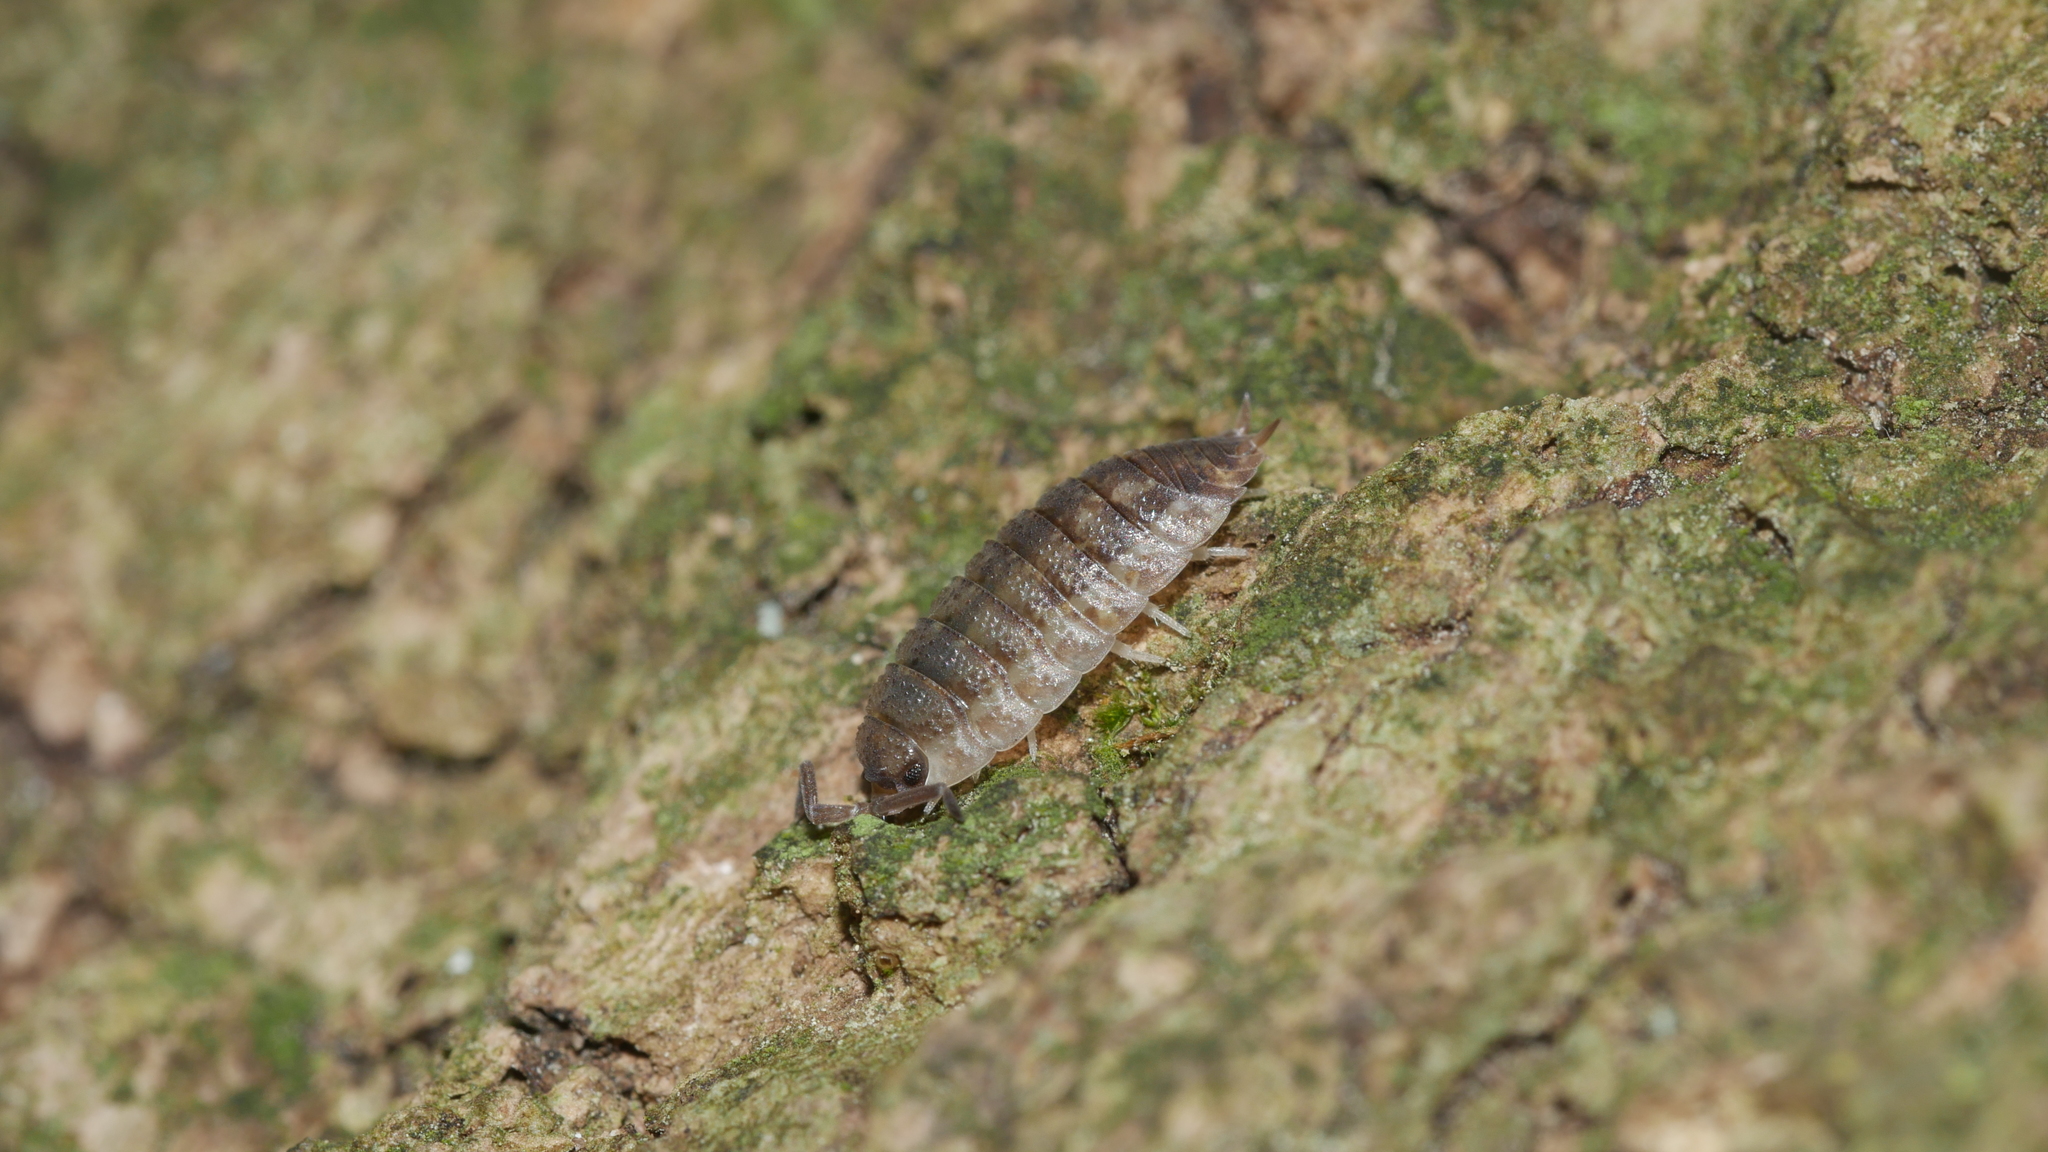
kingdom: Animalia
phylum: Arthropoda
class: Malacostraca
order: Isopoda
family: Porcellionidae
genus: Porcellio
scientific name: Porcellio scaber
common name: Common rough woodlouse
